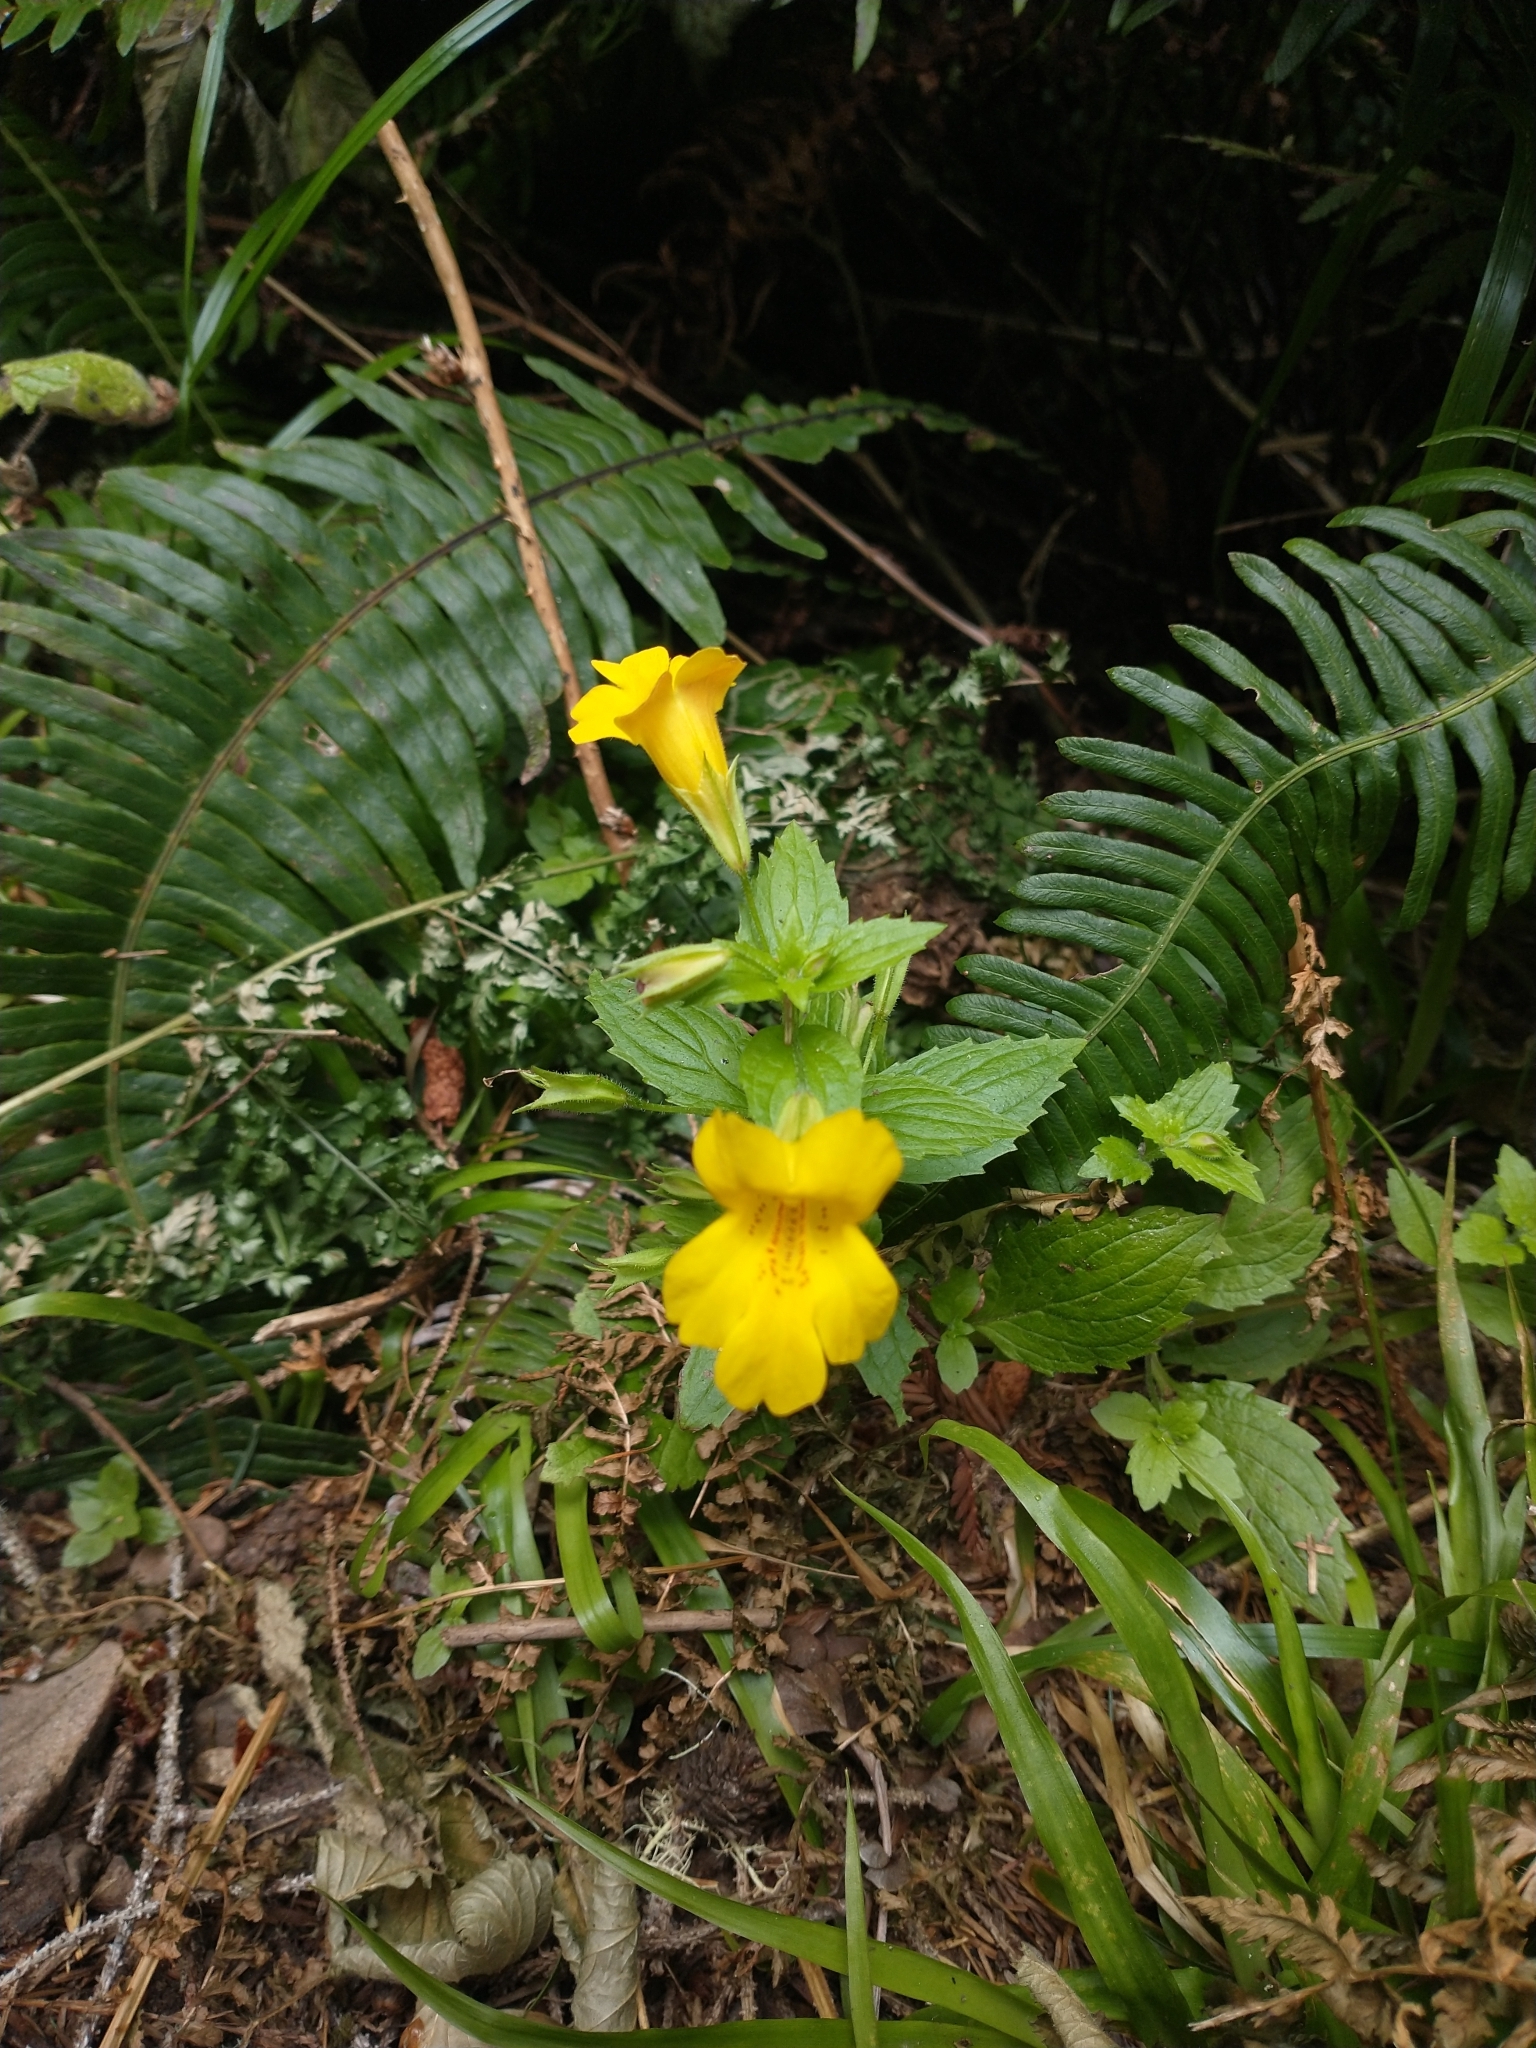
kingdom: Plantae
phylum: Tracheophyta
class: Magnoliopsida
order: Lamiales
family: Phrymaceae
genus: Erythranthe
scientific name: Erythranthe dentata
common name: Coastal monkeyflower
